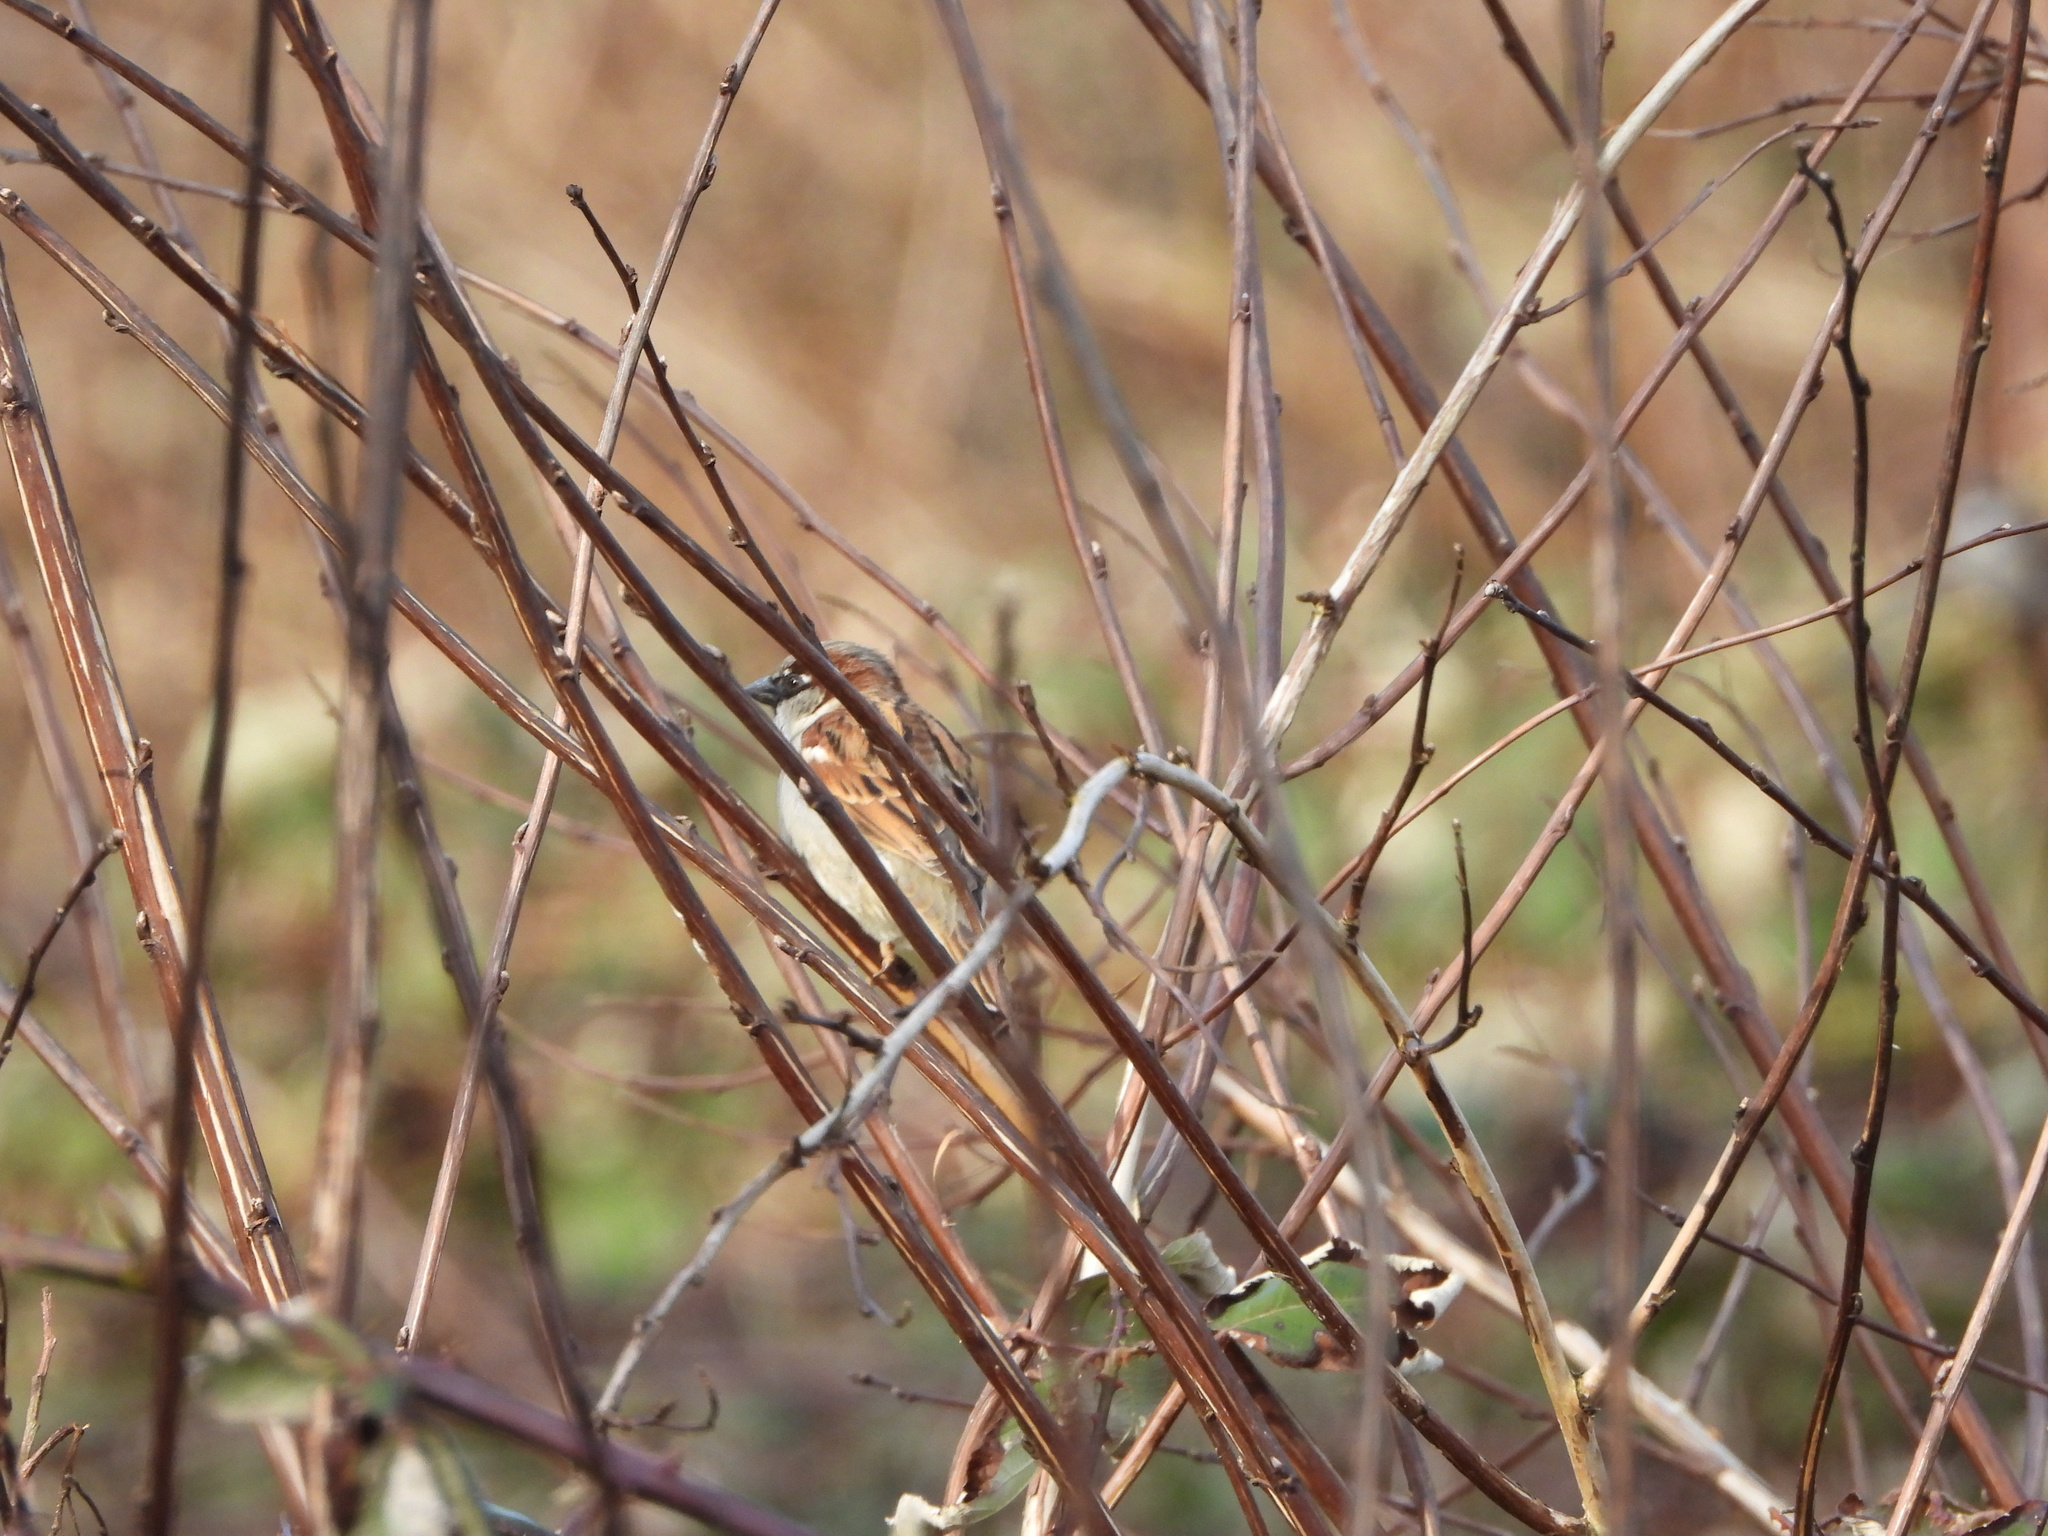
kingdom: Animalia
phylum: Chordata
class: Aves
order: Passeriformes
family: Passeridae
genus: Passer
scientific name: Passer domesticus
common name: House sparrow
